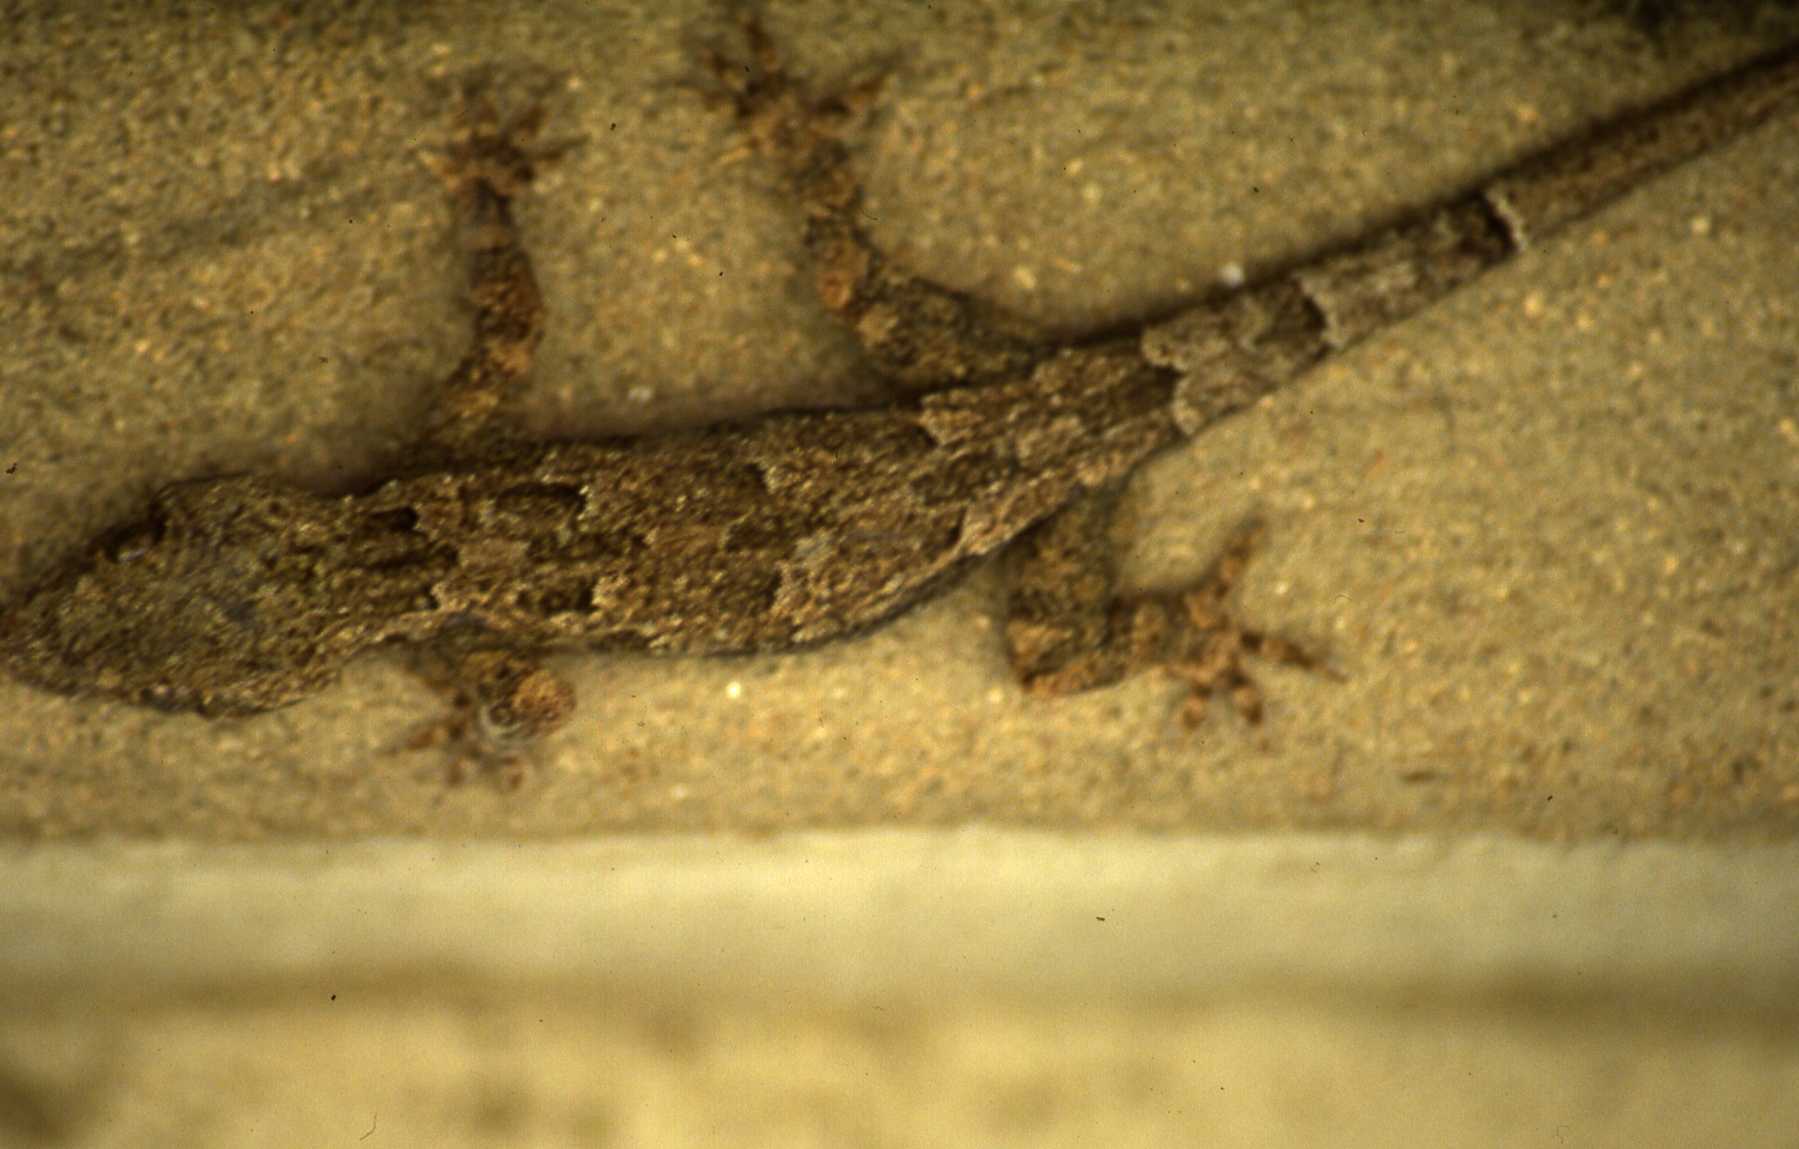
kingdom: Animalia
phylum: Chordata
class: Squamata
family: Gekkonidae
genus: Hemidactylus
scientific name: Hemidactylus platycephalus
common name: Baobab gecko
